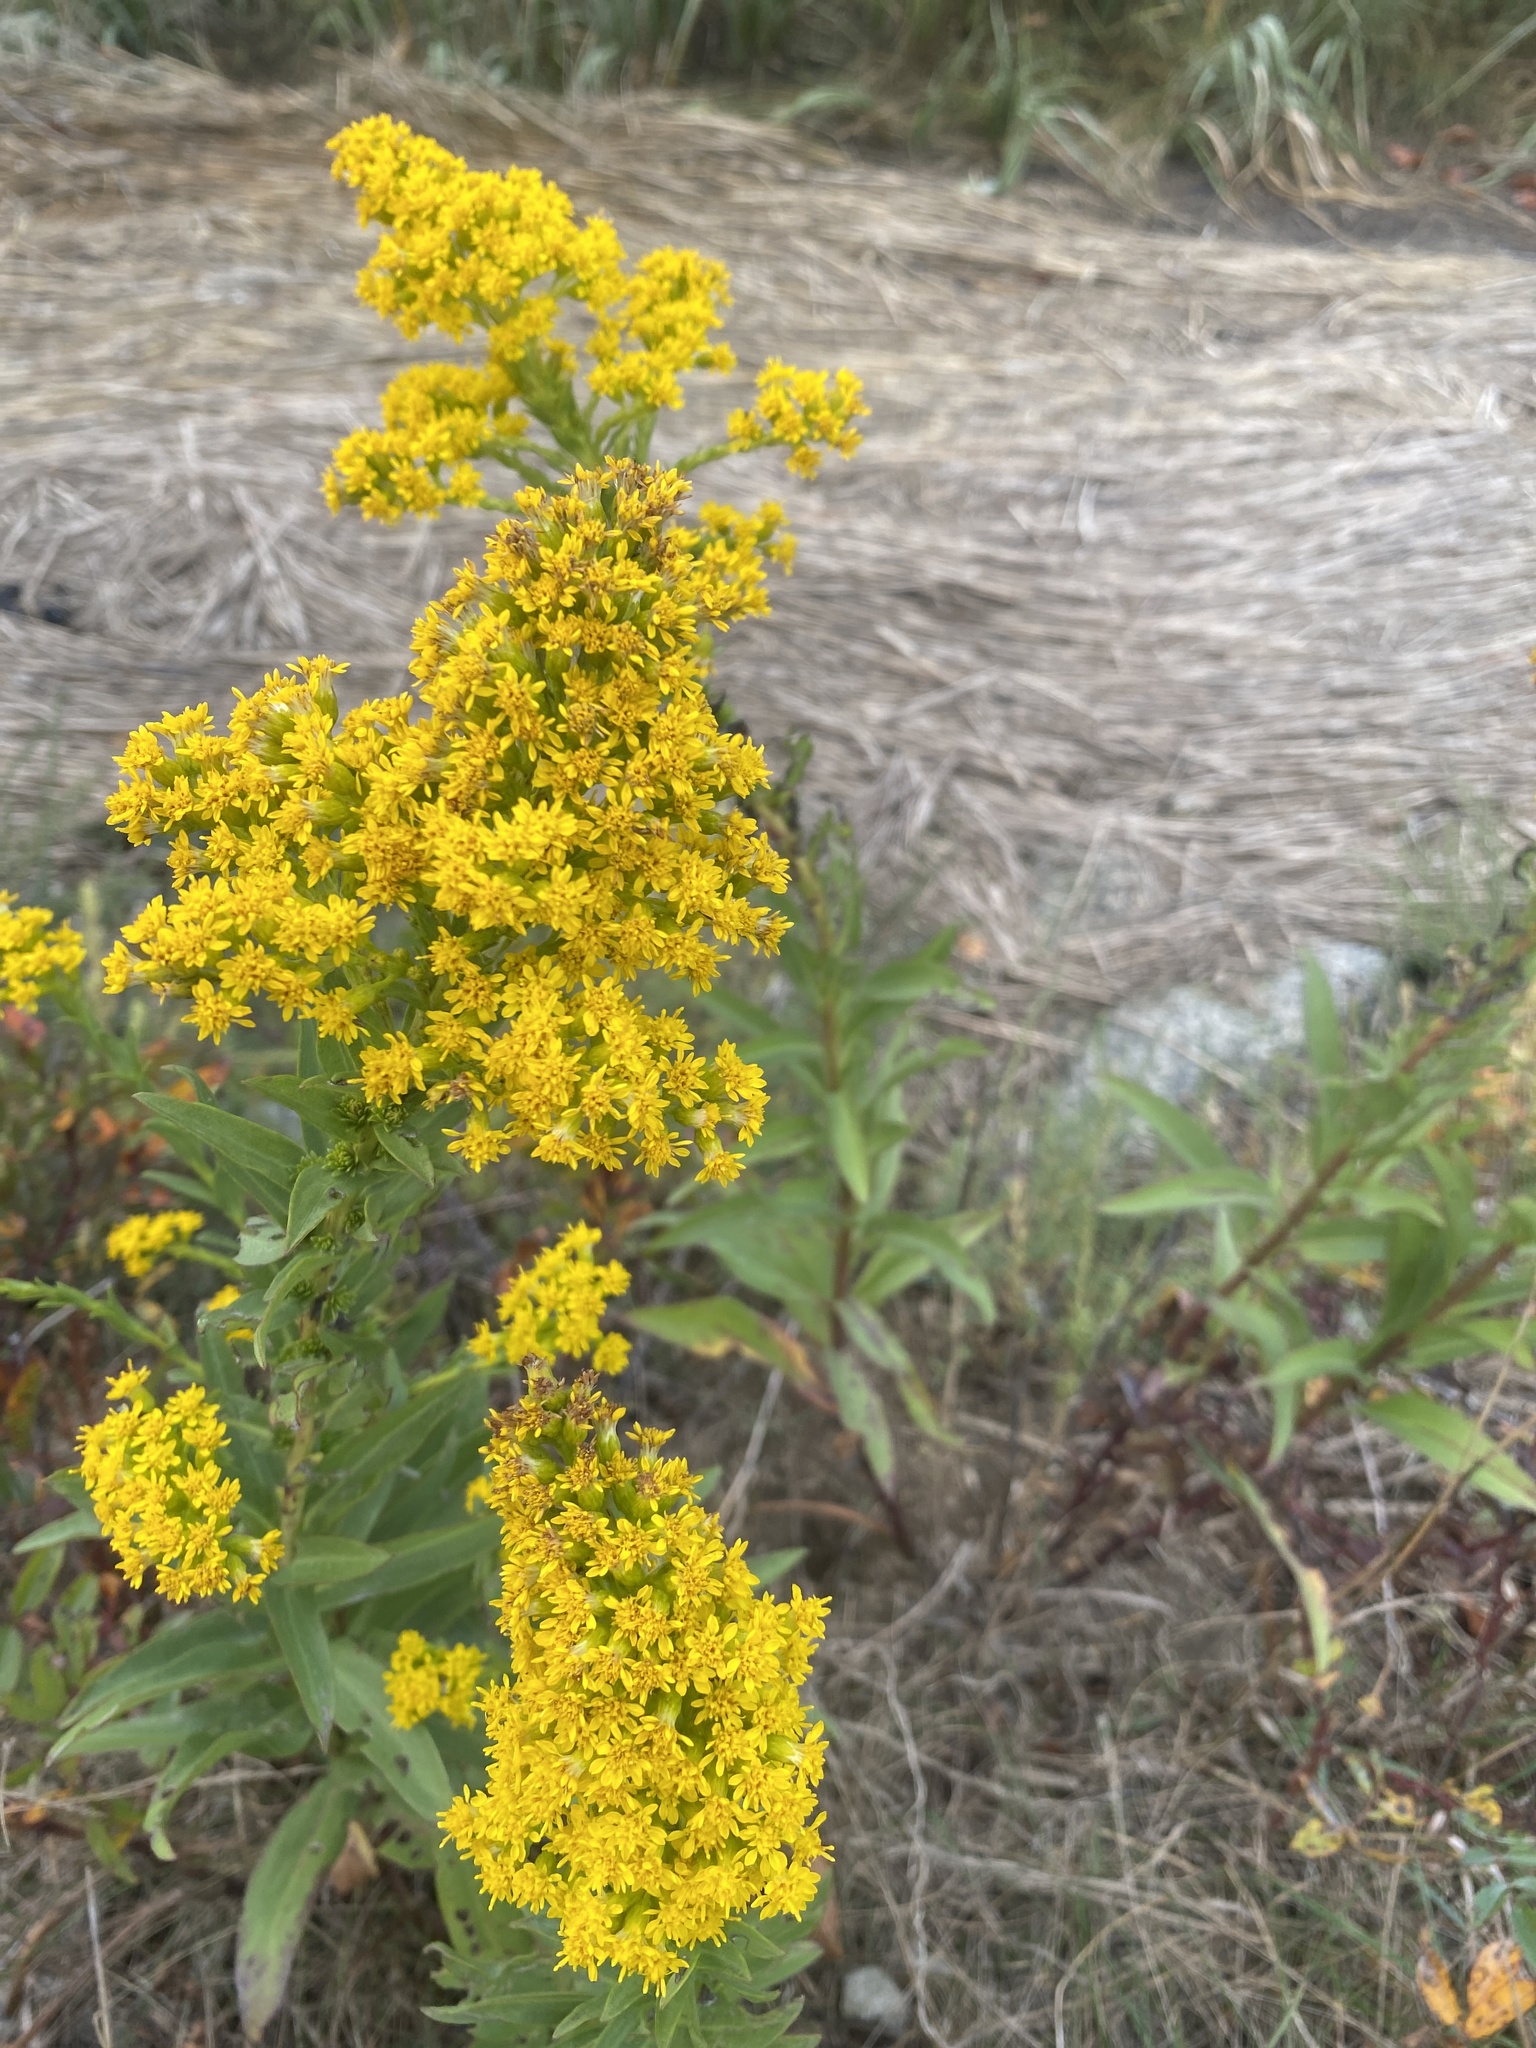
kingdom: Plantae
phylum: Tracheophyta
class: Magnoliopsida
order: Asterales
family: Asteraceae
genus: Solidago
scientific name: Solidago sempervirens
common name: Salt-marsh goldenrod
